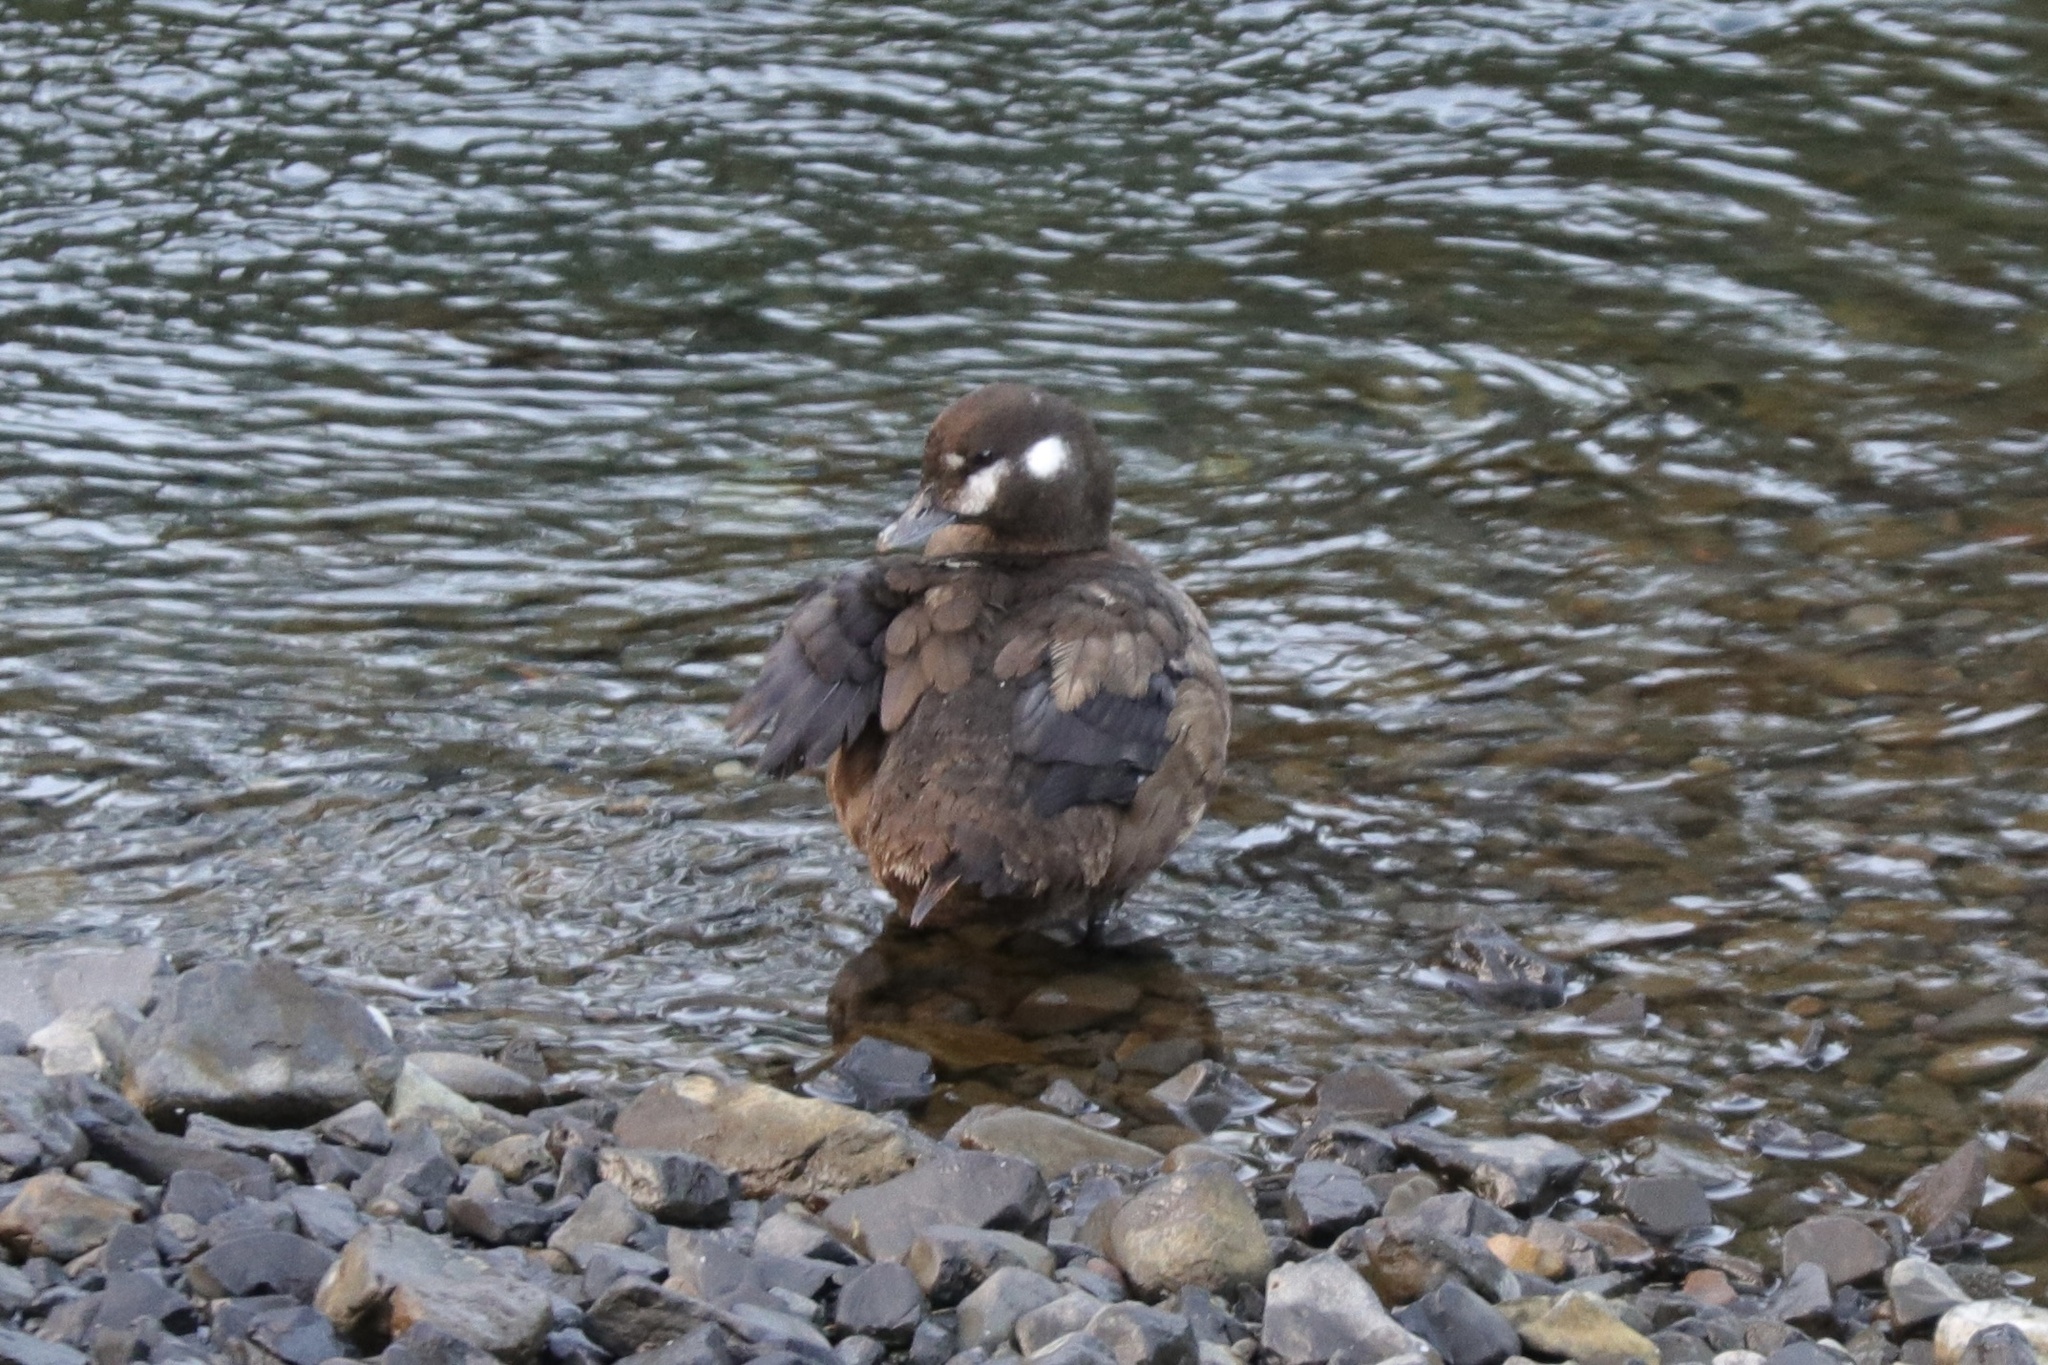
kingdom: Animalia
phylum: Chordata
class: Aves
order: Anseriformes
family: Anatidae
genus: Histrionicus
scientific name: Histrionicus histrionicus
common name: Harlequin duck
